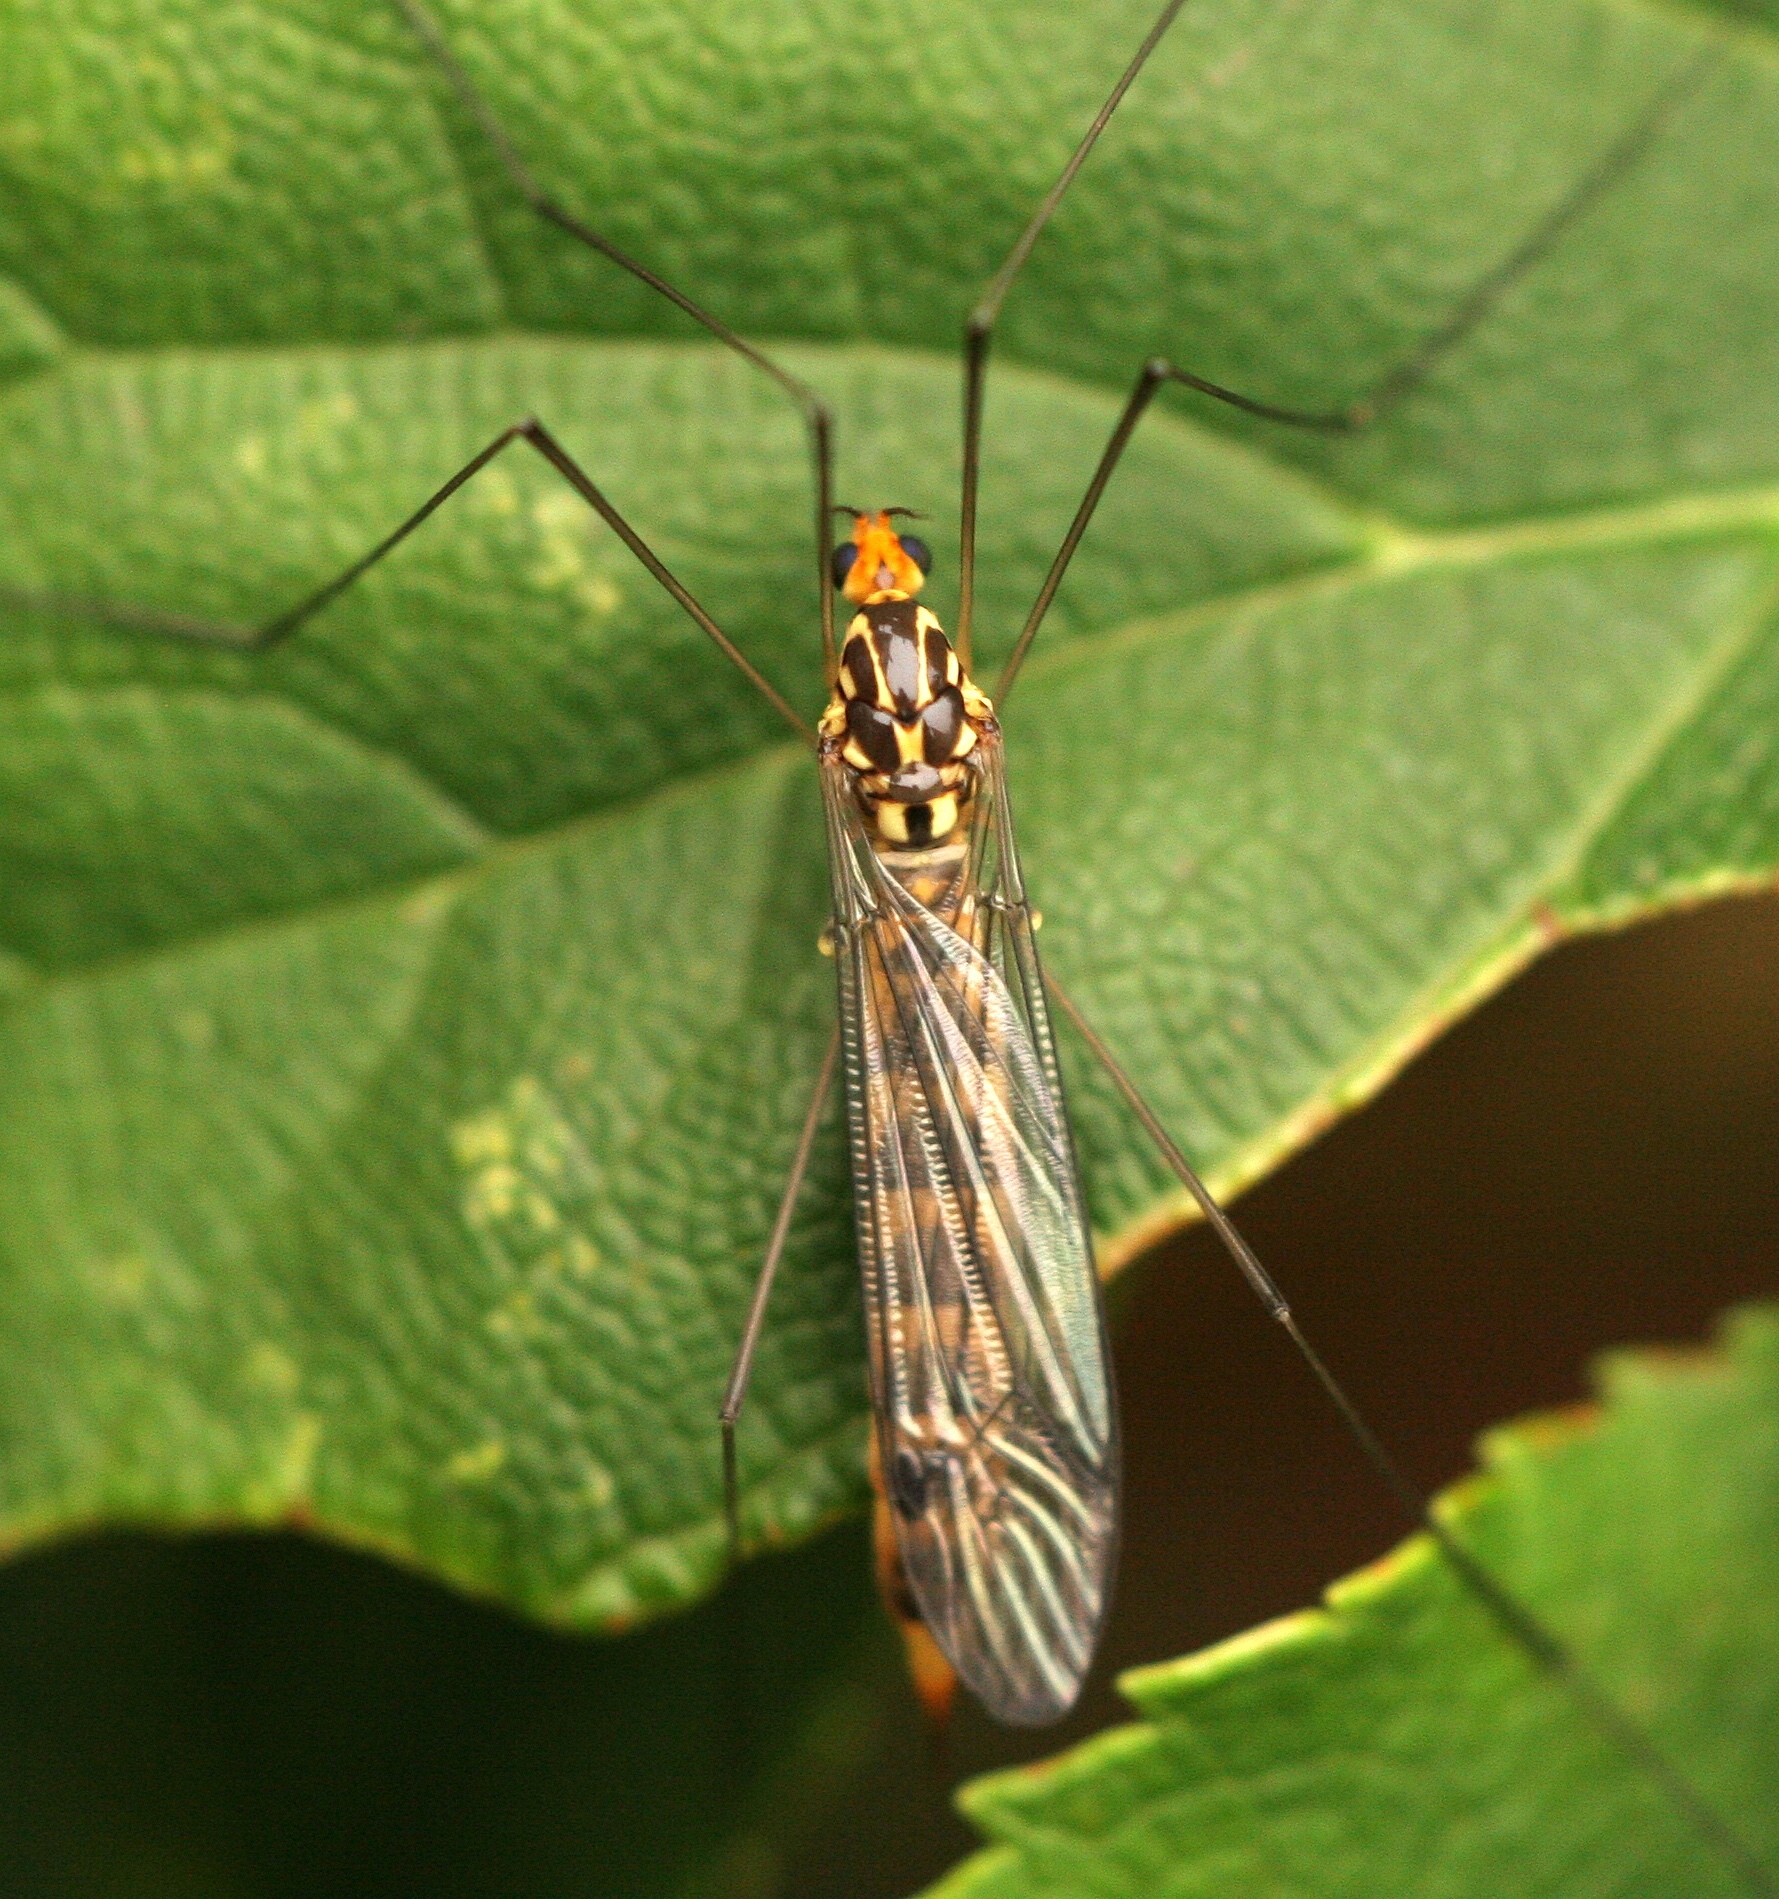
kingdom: Animalia
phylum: Arthropoda
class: Insecta
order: Diptera
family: Tipulidae
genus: Nephrotoma
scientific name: Nephrotoma flavipalpis
